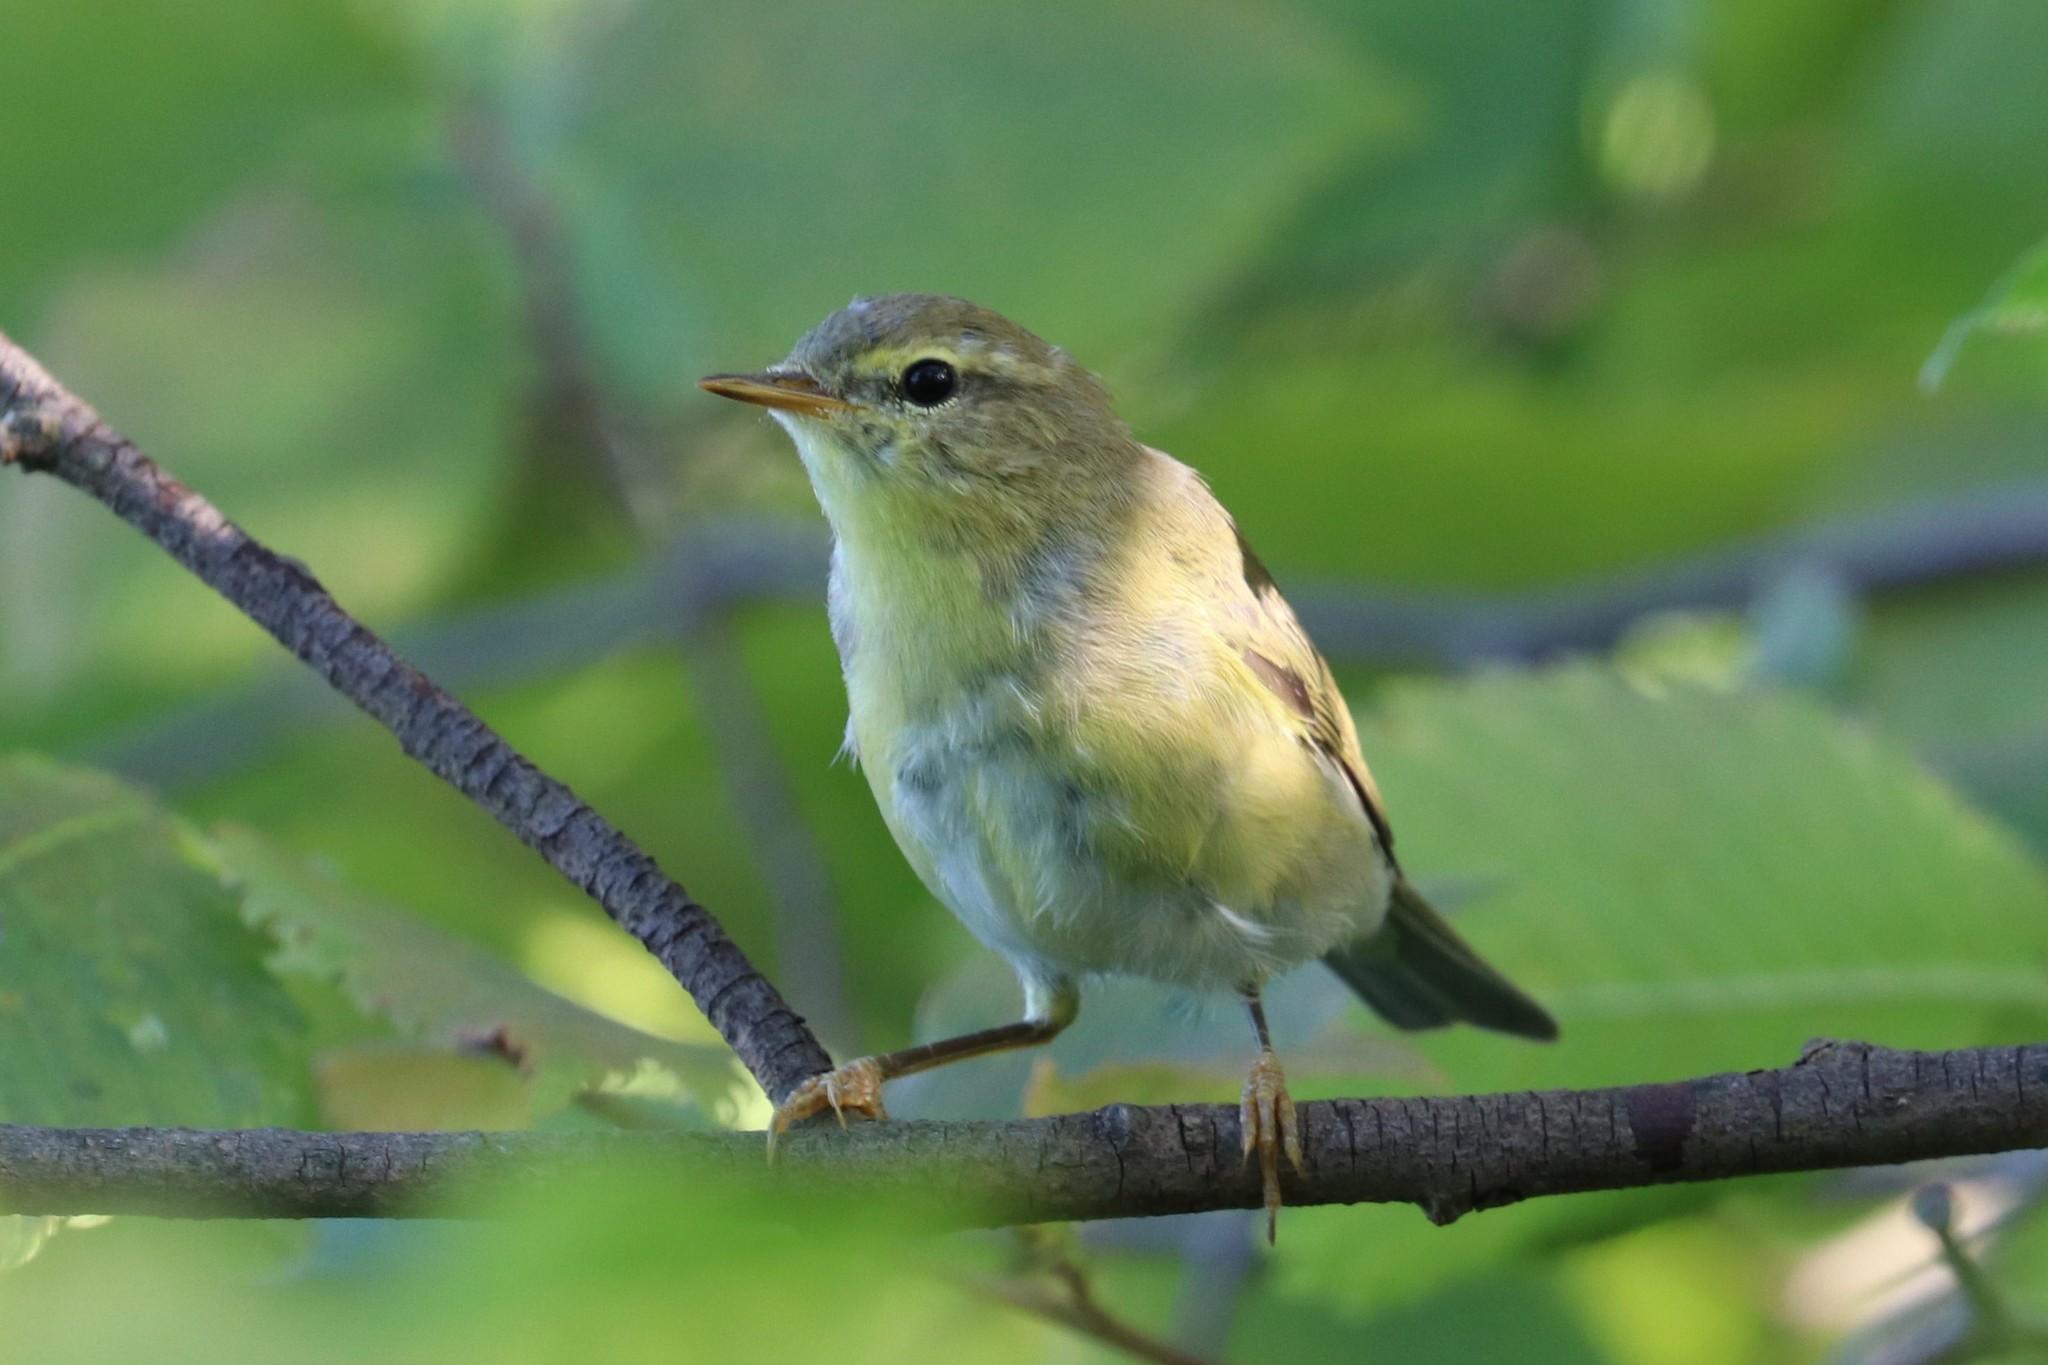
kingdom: Animalia
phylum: Chordata
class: Aves
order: Passeriformes
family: Phylloscopidae
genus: Phylloscopus
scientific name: Phylloscopus trochilus
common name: Willow warbler
